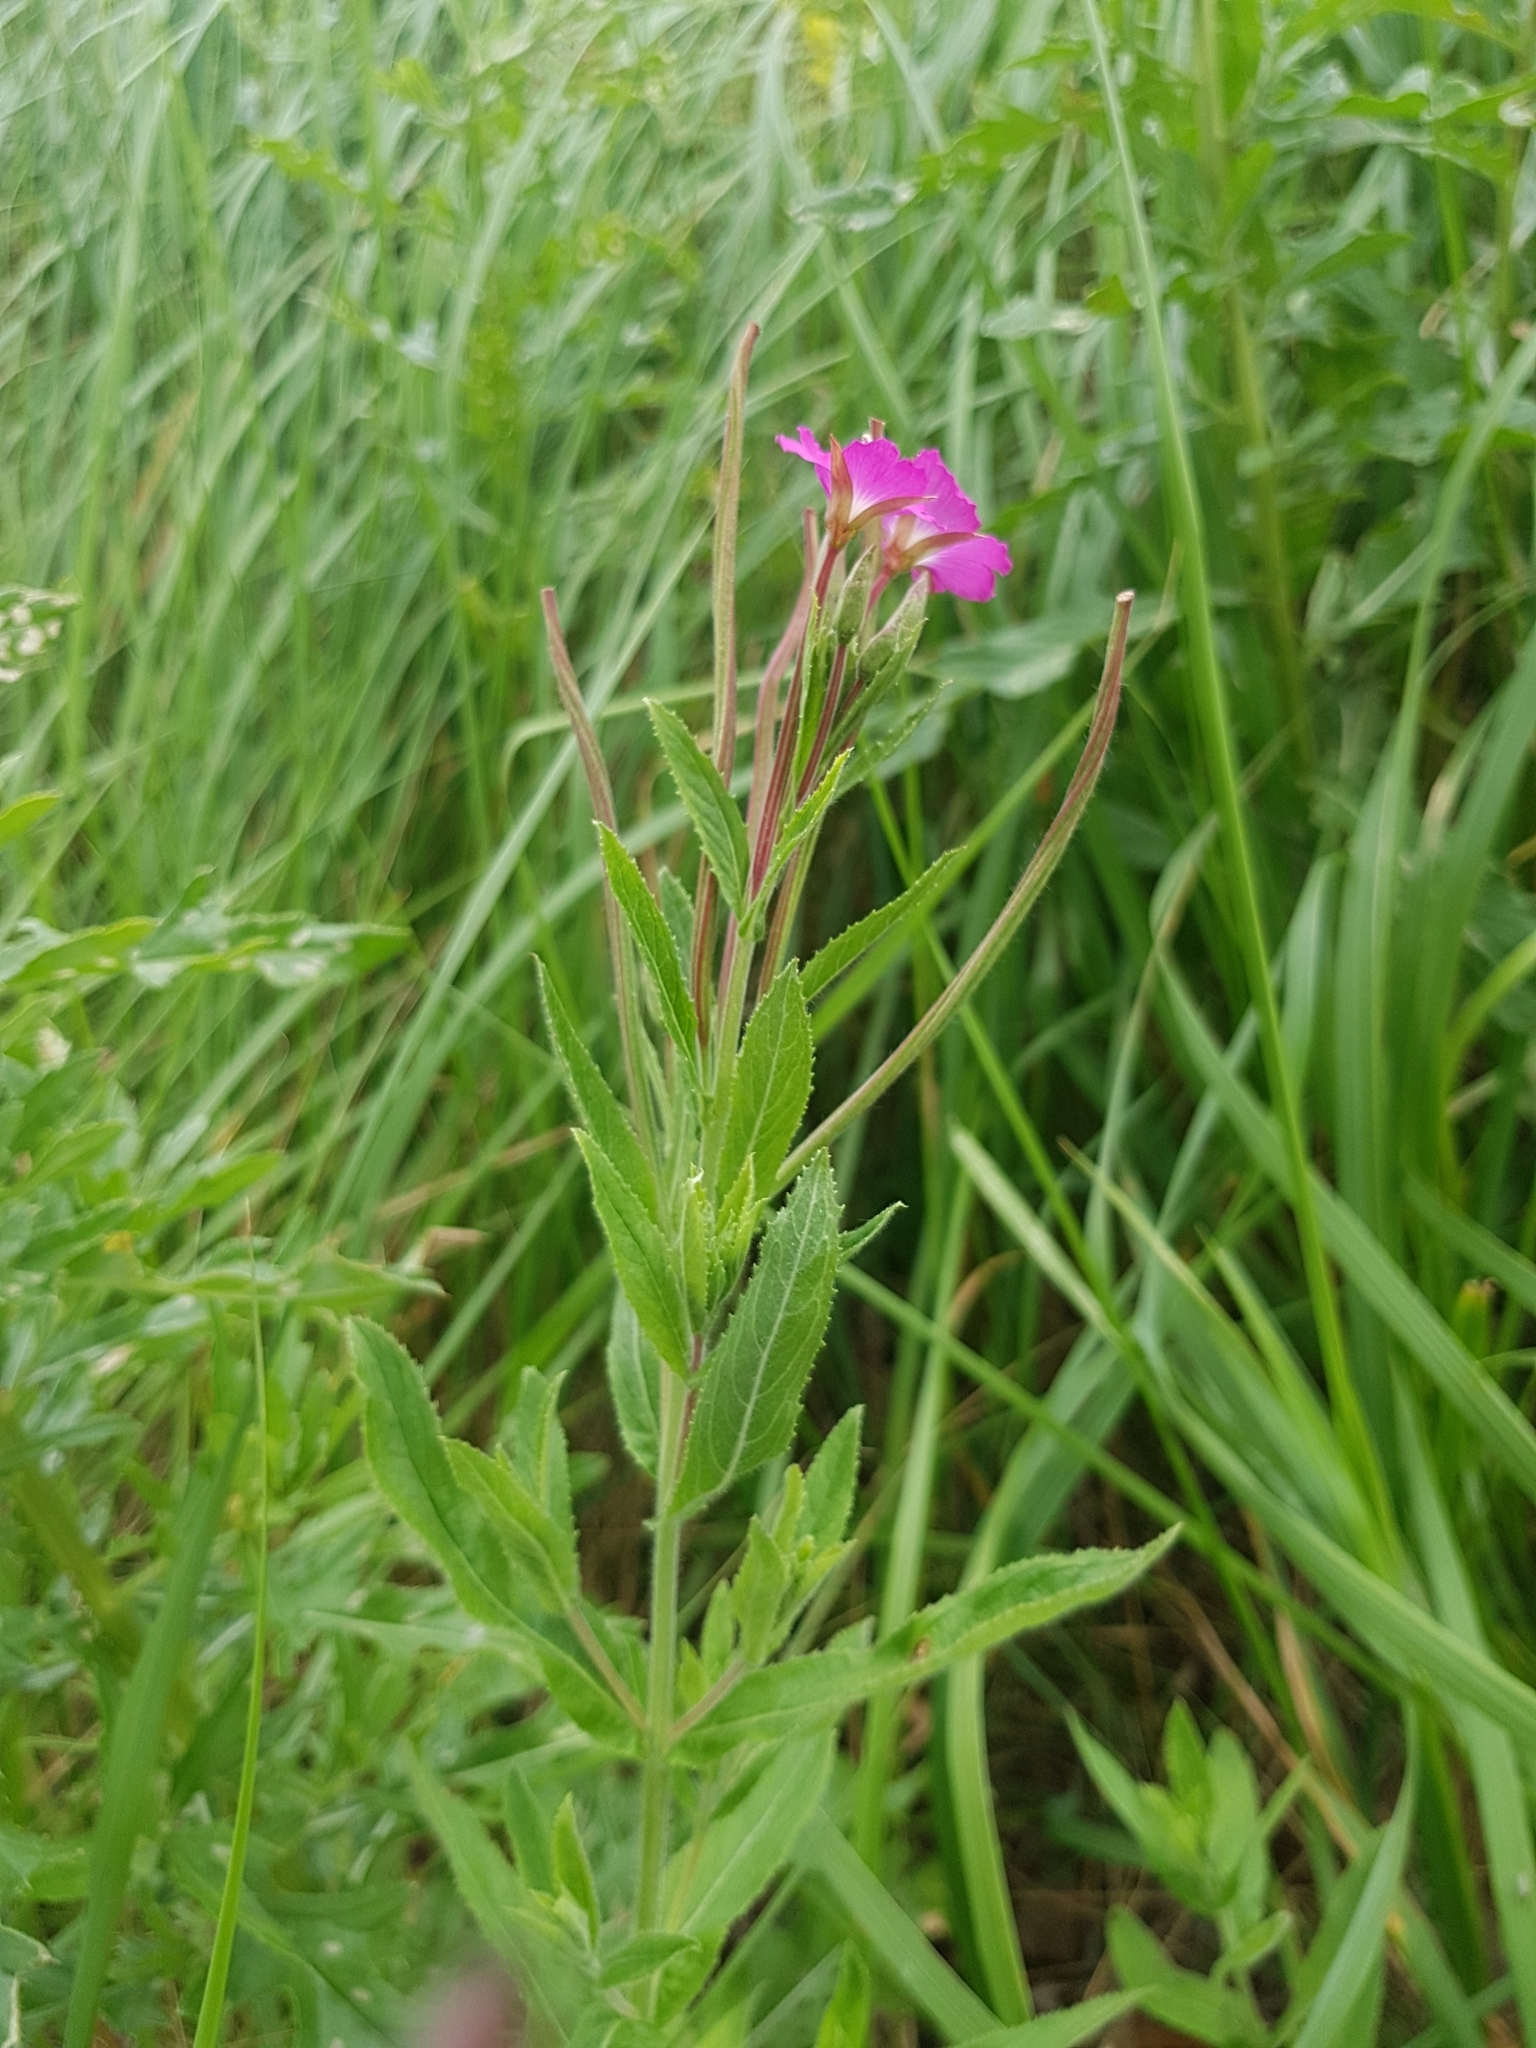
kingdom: Plantae
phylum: Tracheophyta
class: Magnoliopsida
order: Myrtales
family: Onagraceae
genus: Epilobium
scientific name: Epilobium hirsutum
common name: Great willowherb
